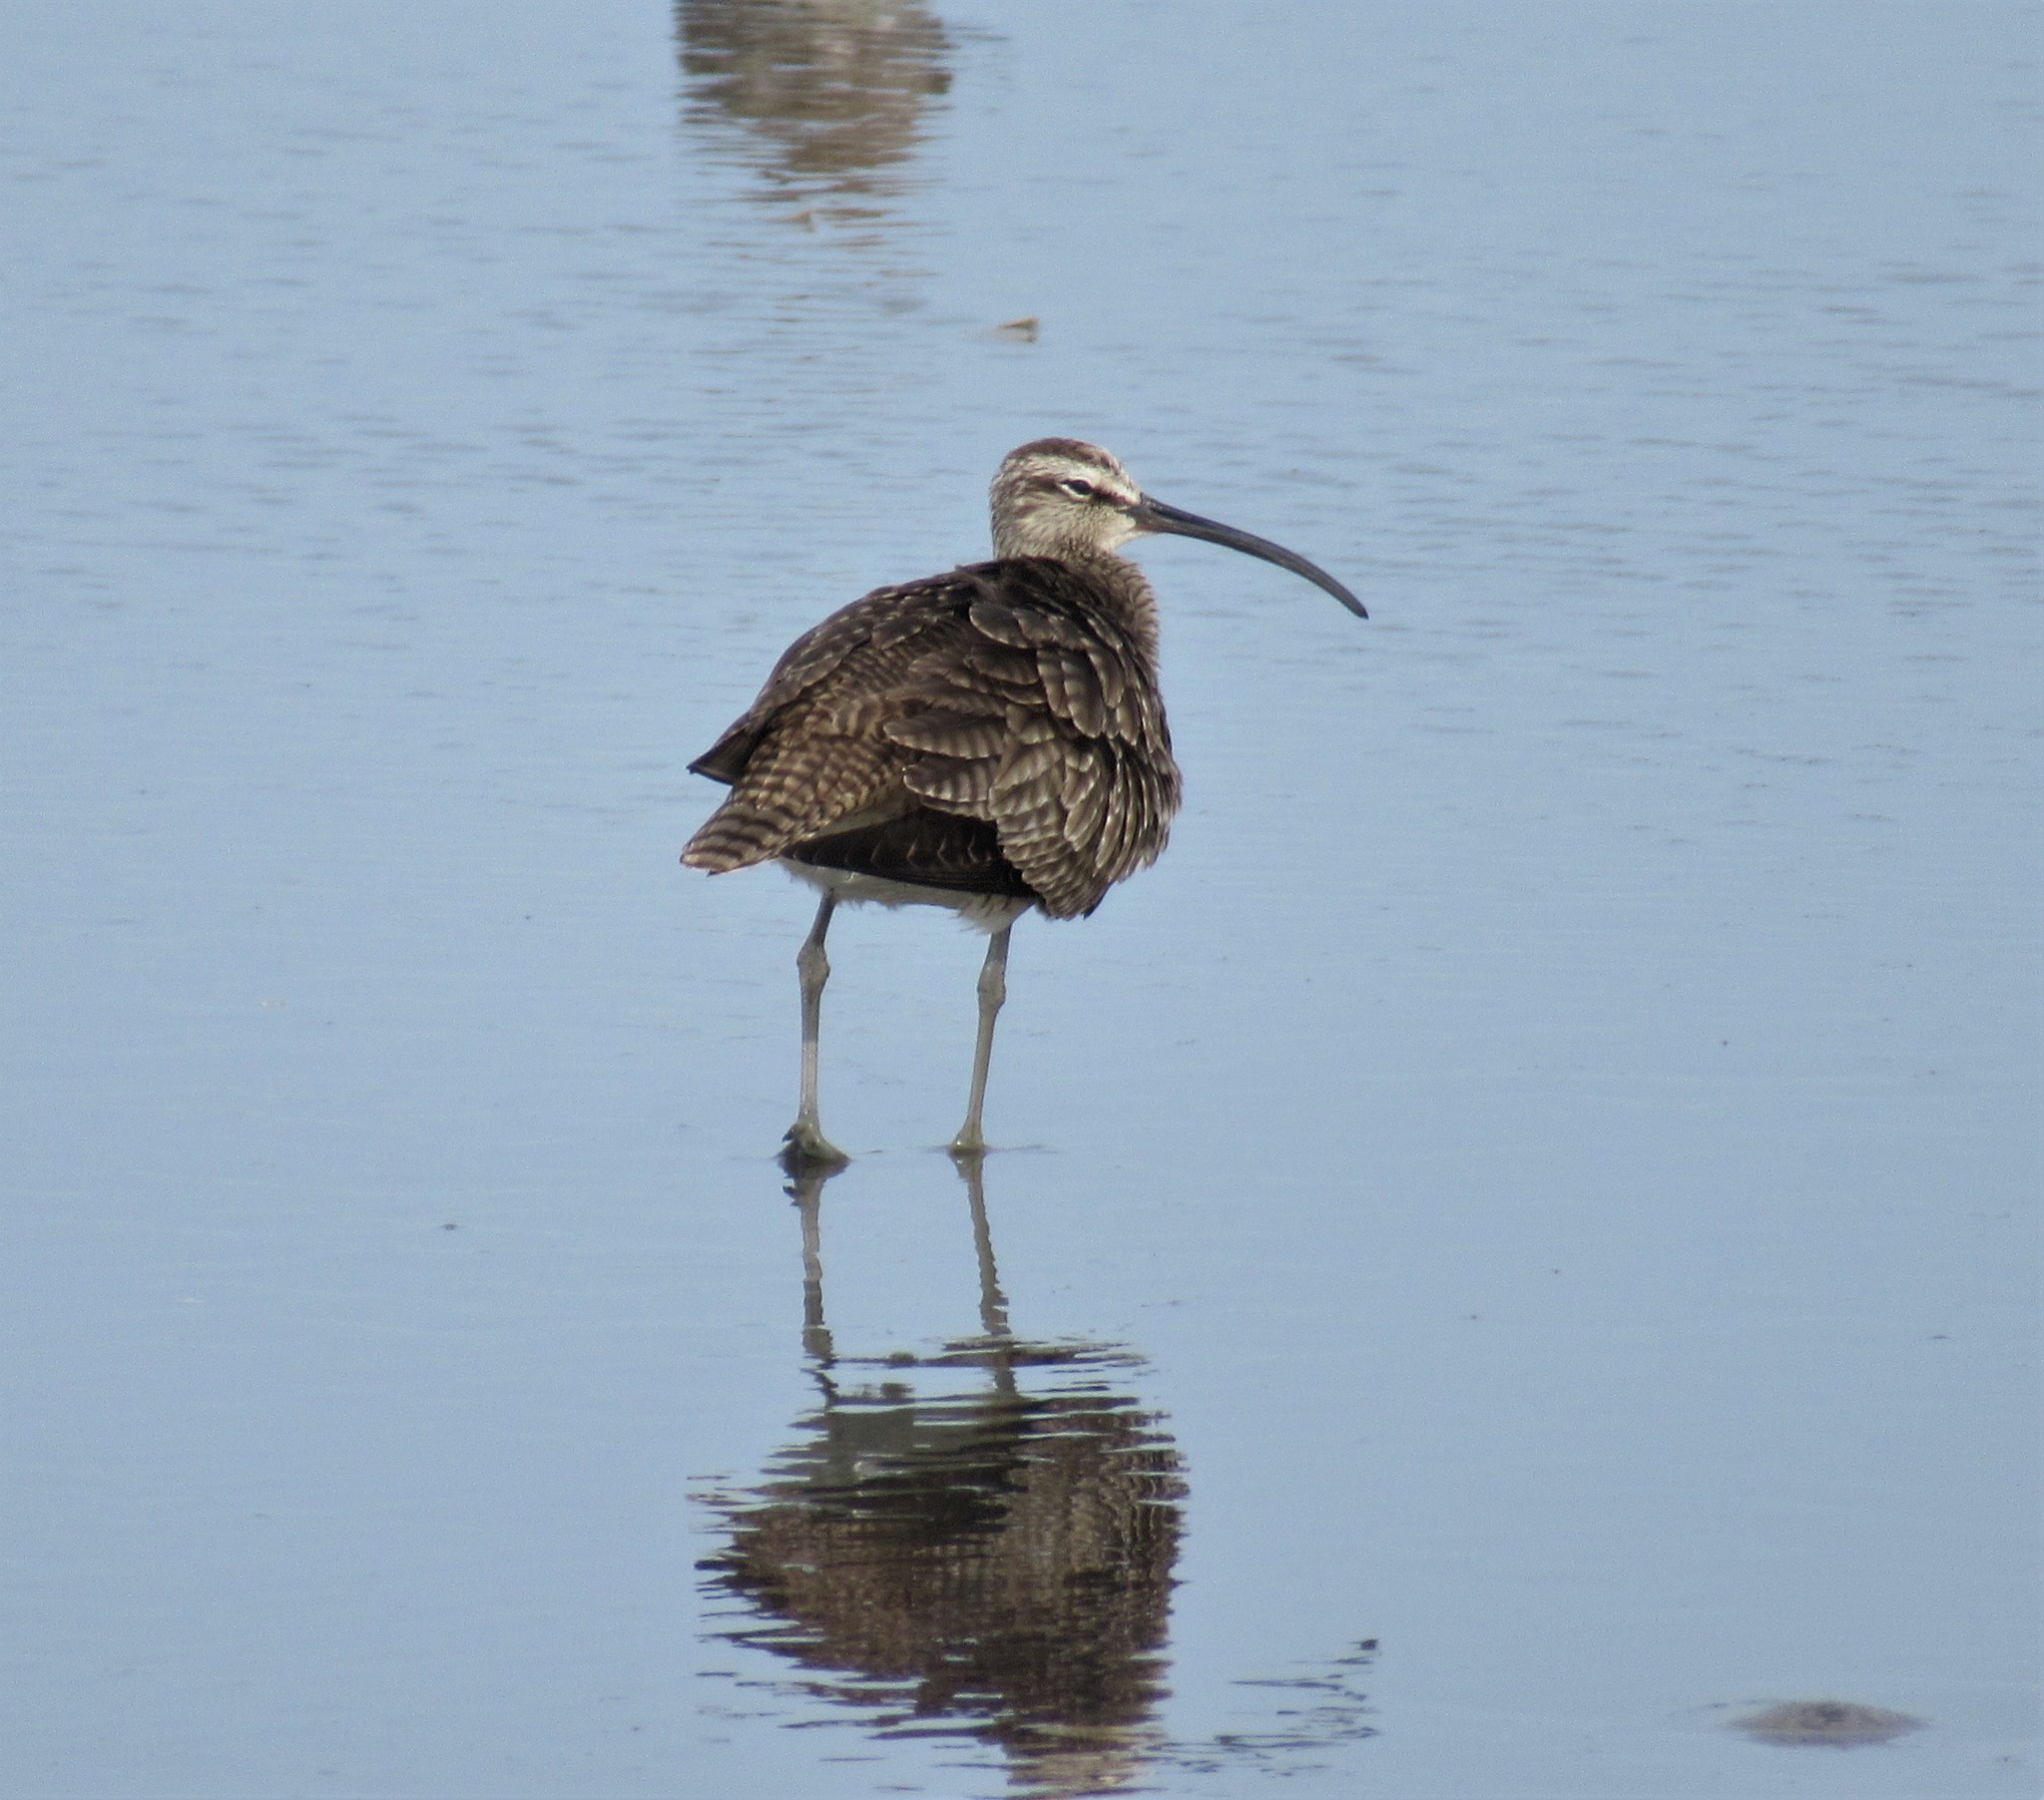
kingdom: Animalia
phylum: Chordata
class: Aves
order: Charadriiformes
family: Scolopacidae
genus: Numenius
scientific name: Numenius phaeopus
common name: Whimbrel
